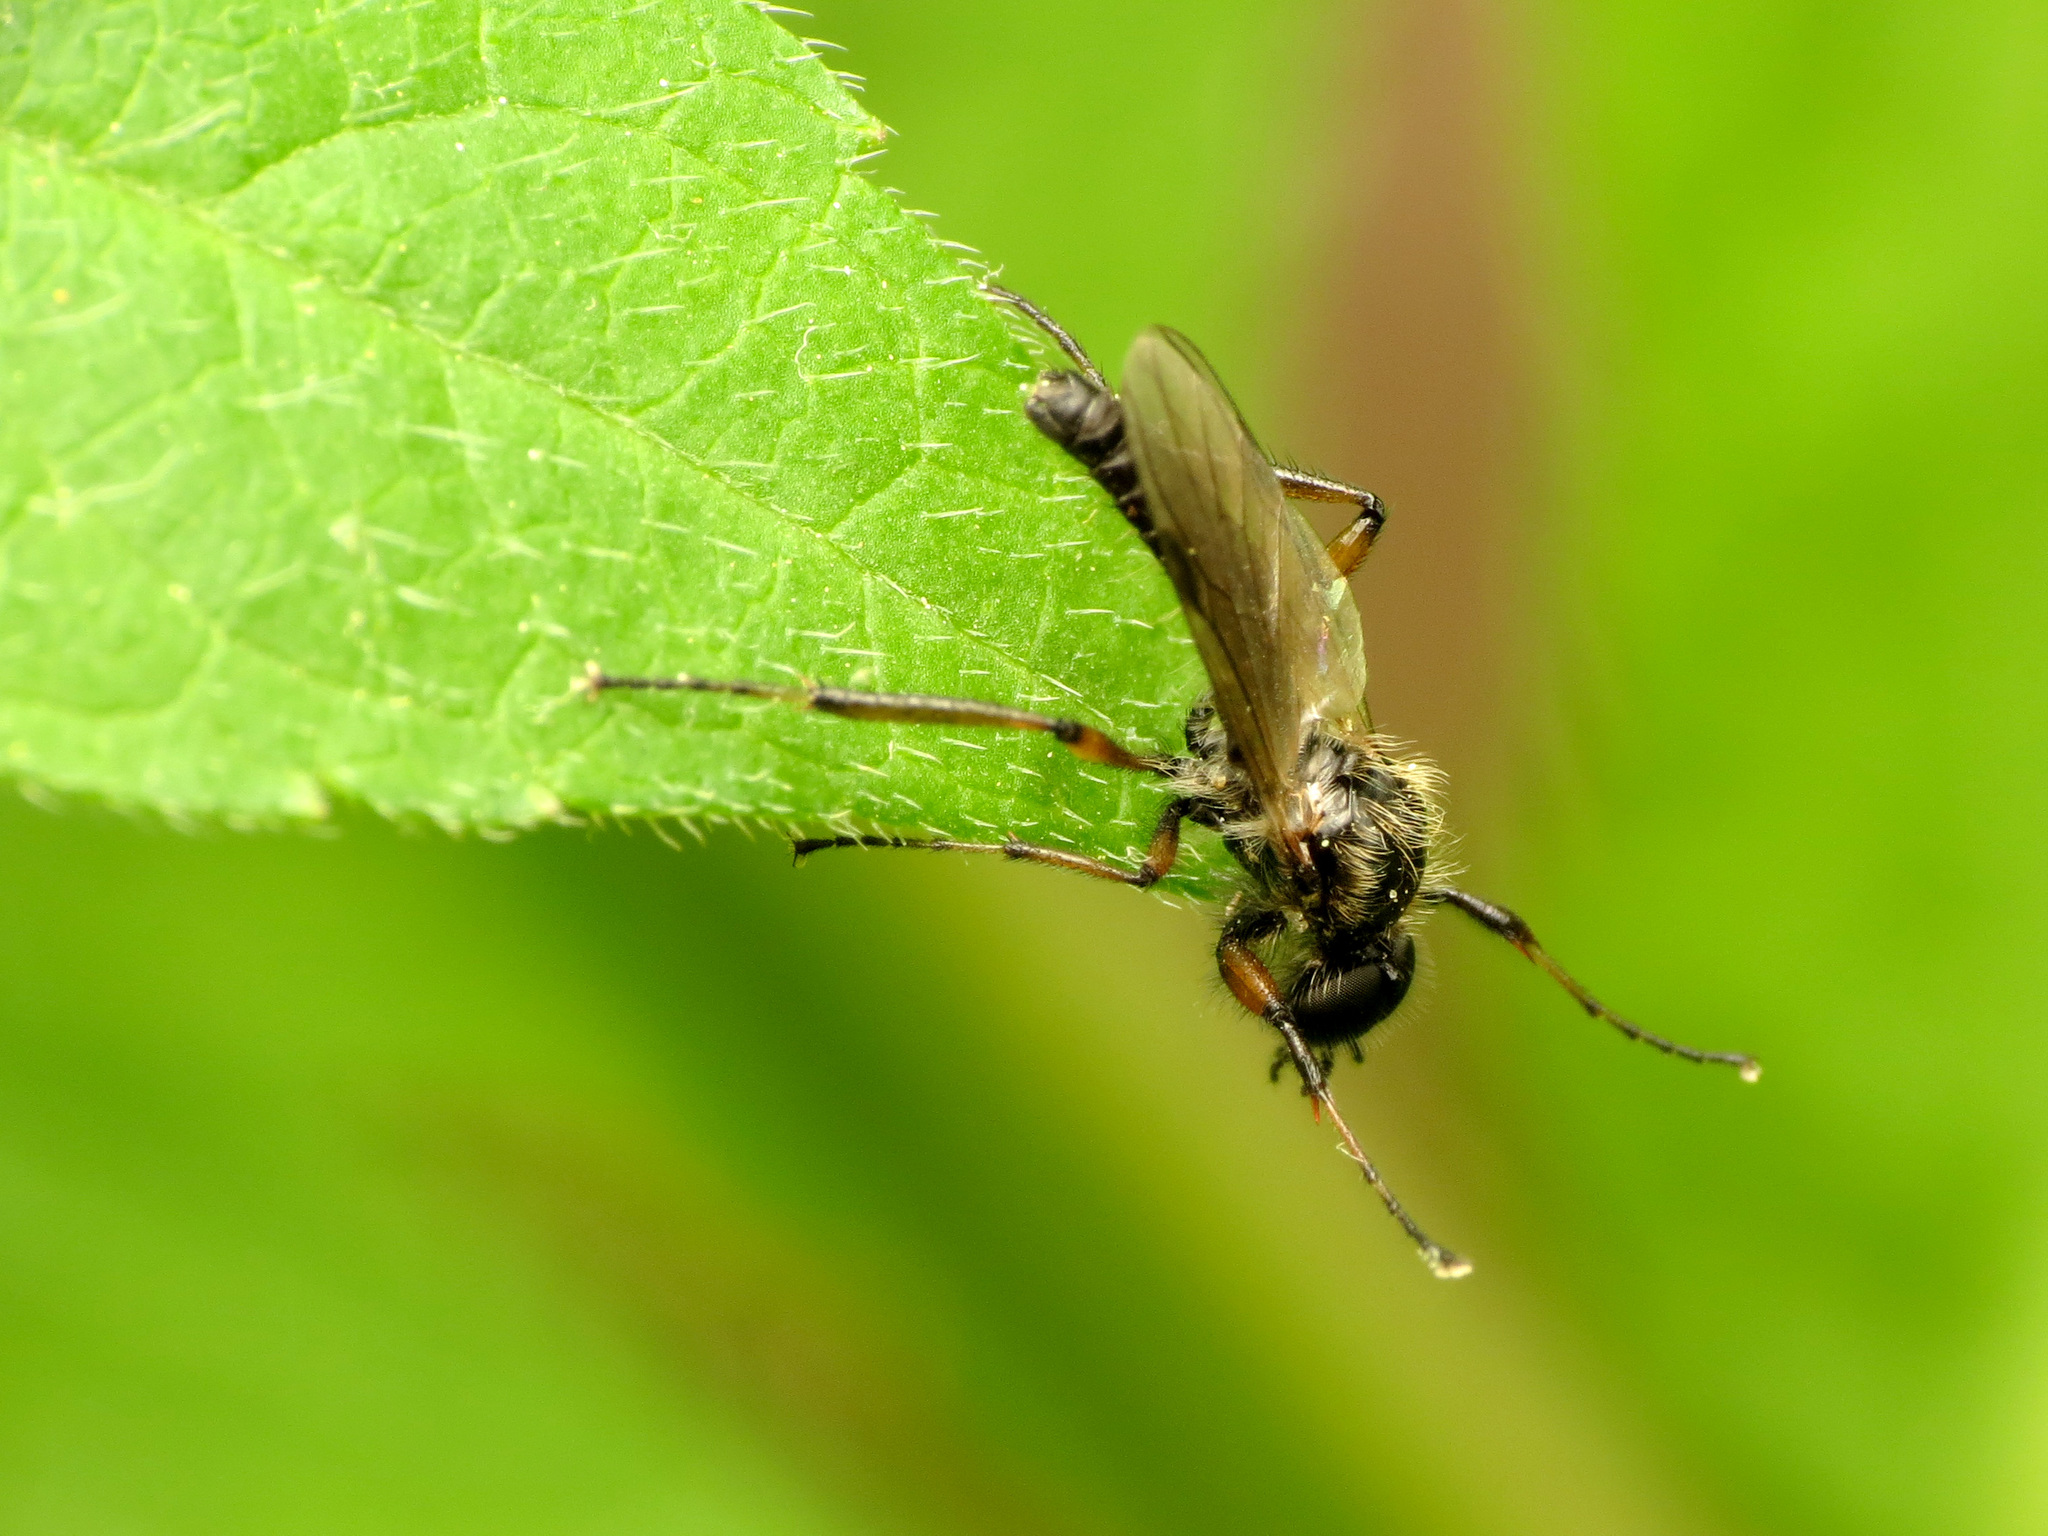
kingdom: Animalia
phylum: Arthropoda
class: Insecta
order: Diptera
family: Bibionidae
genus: Bibio
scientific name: Bibio articulatus
